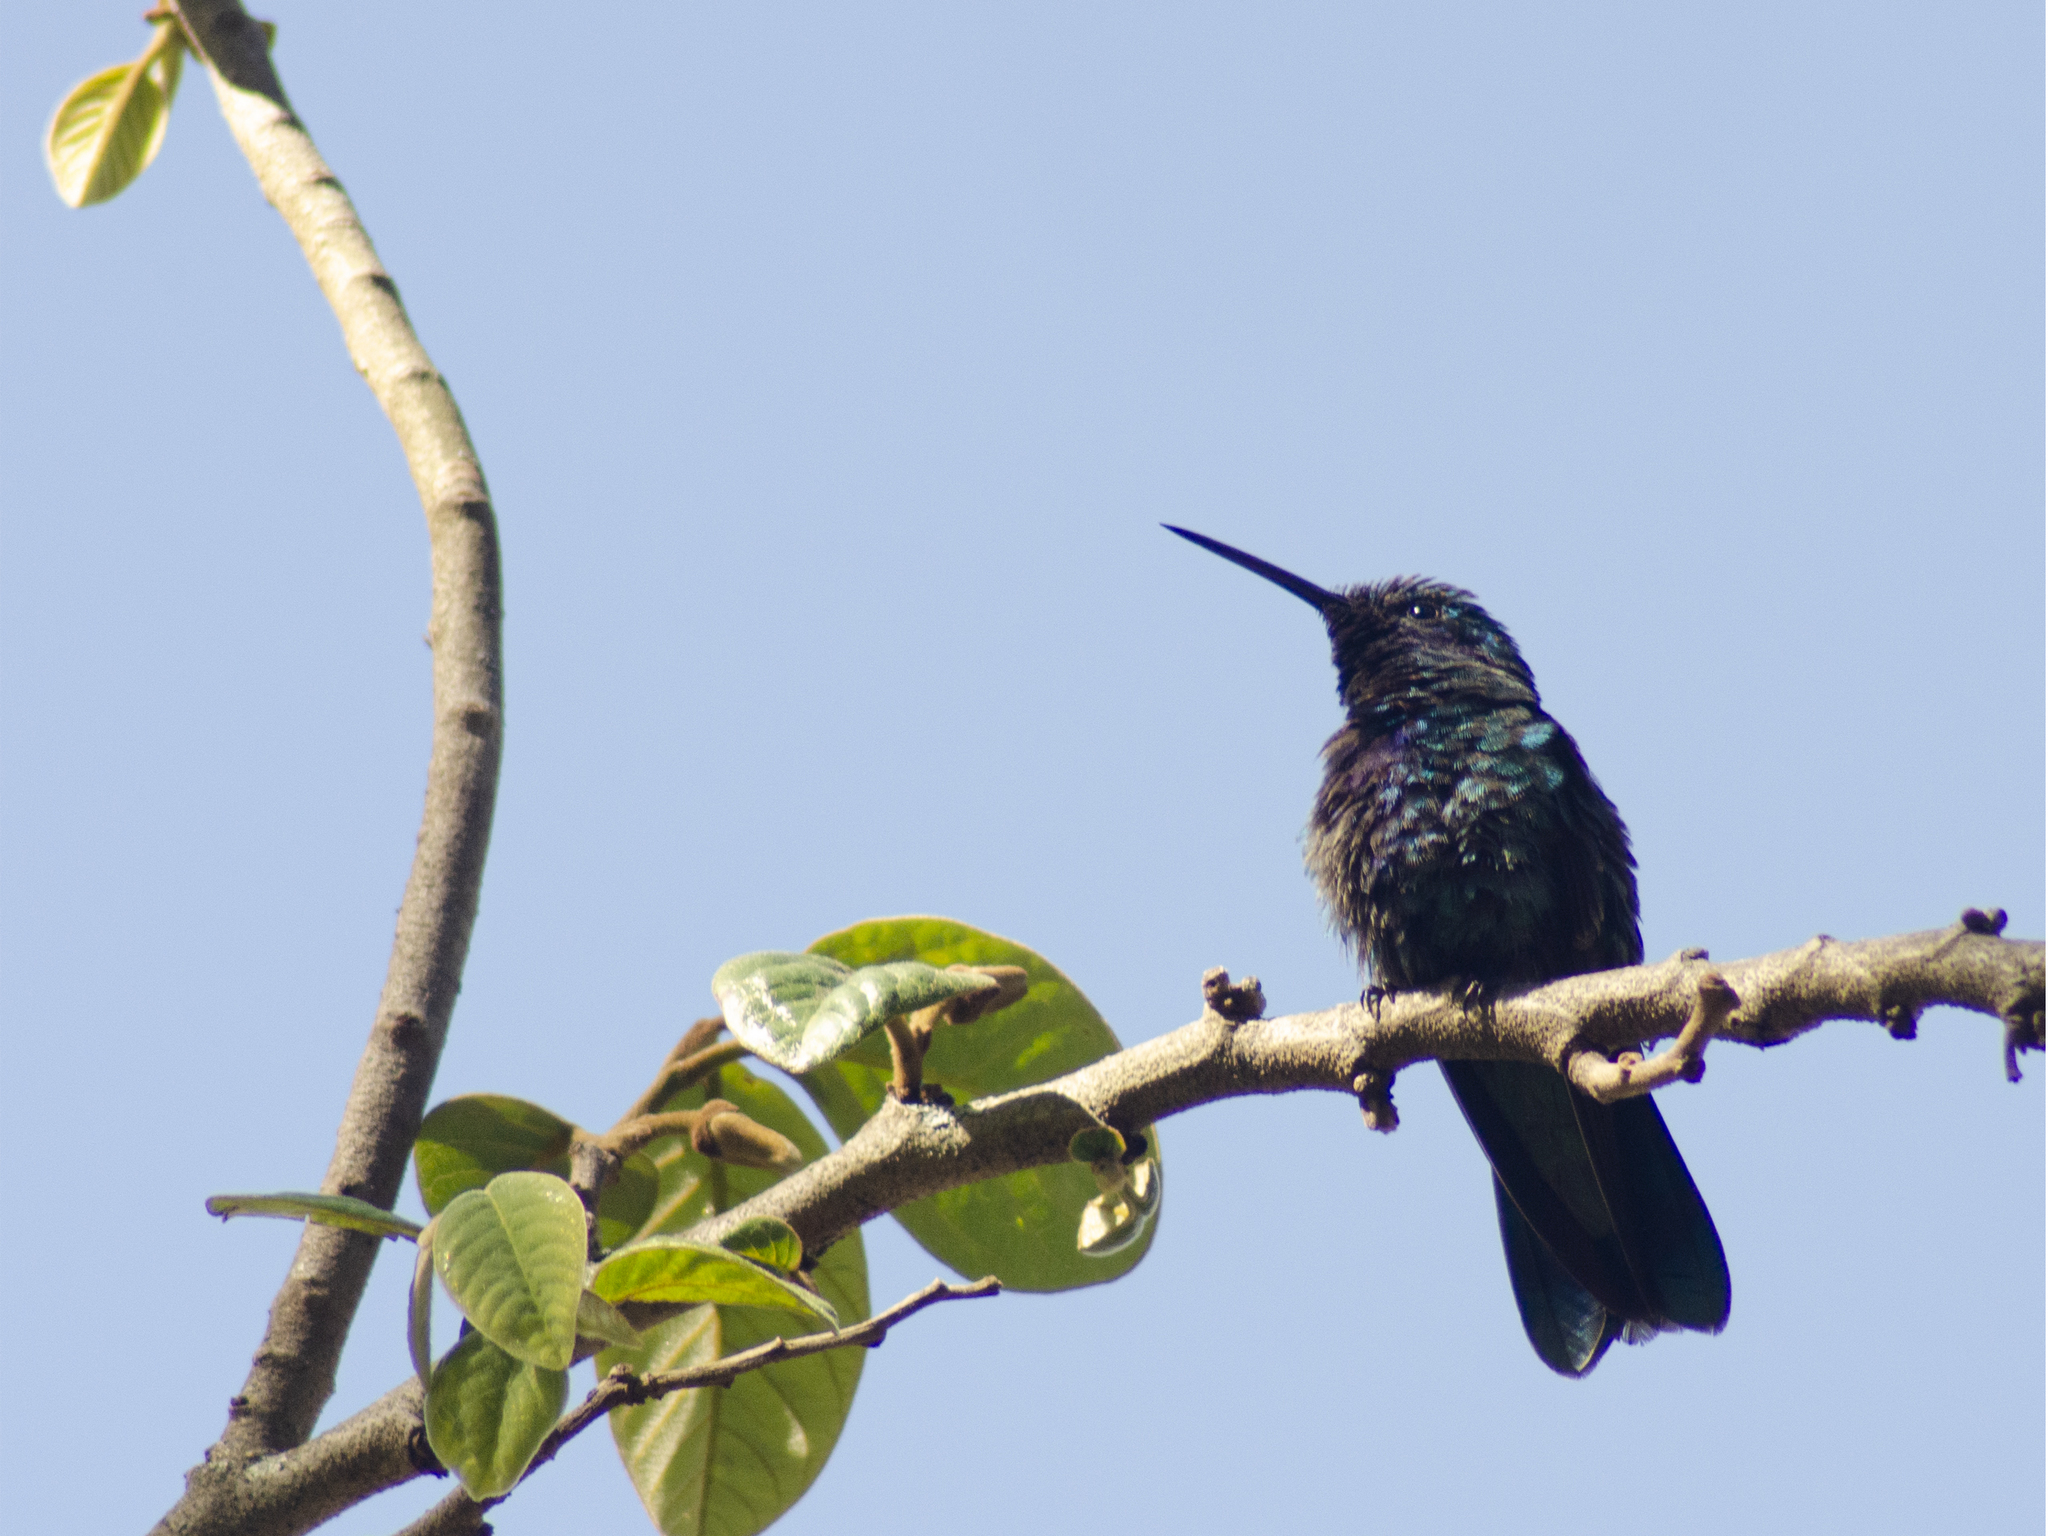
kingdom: Animalia
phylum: Chordata
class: Aves
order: Apodiformes
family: Trochilidae
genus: Colibri
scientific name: Colibri coruscans
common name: Sparkling violetear
